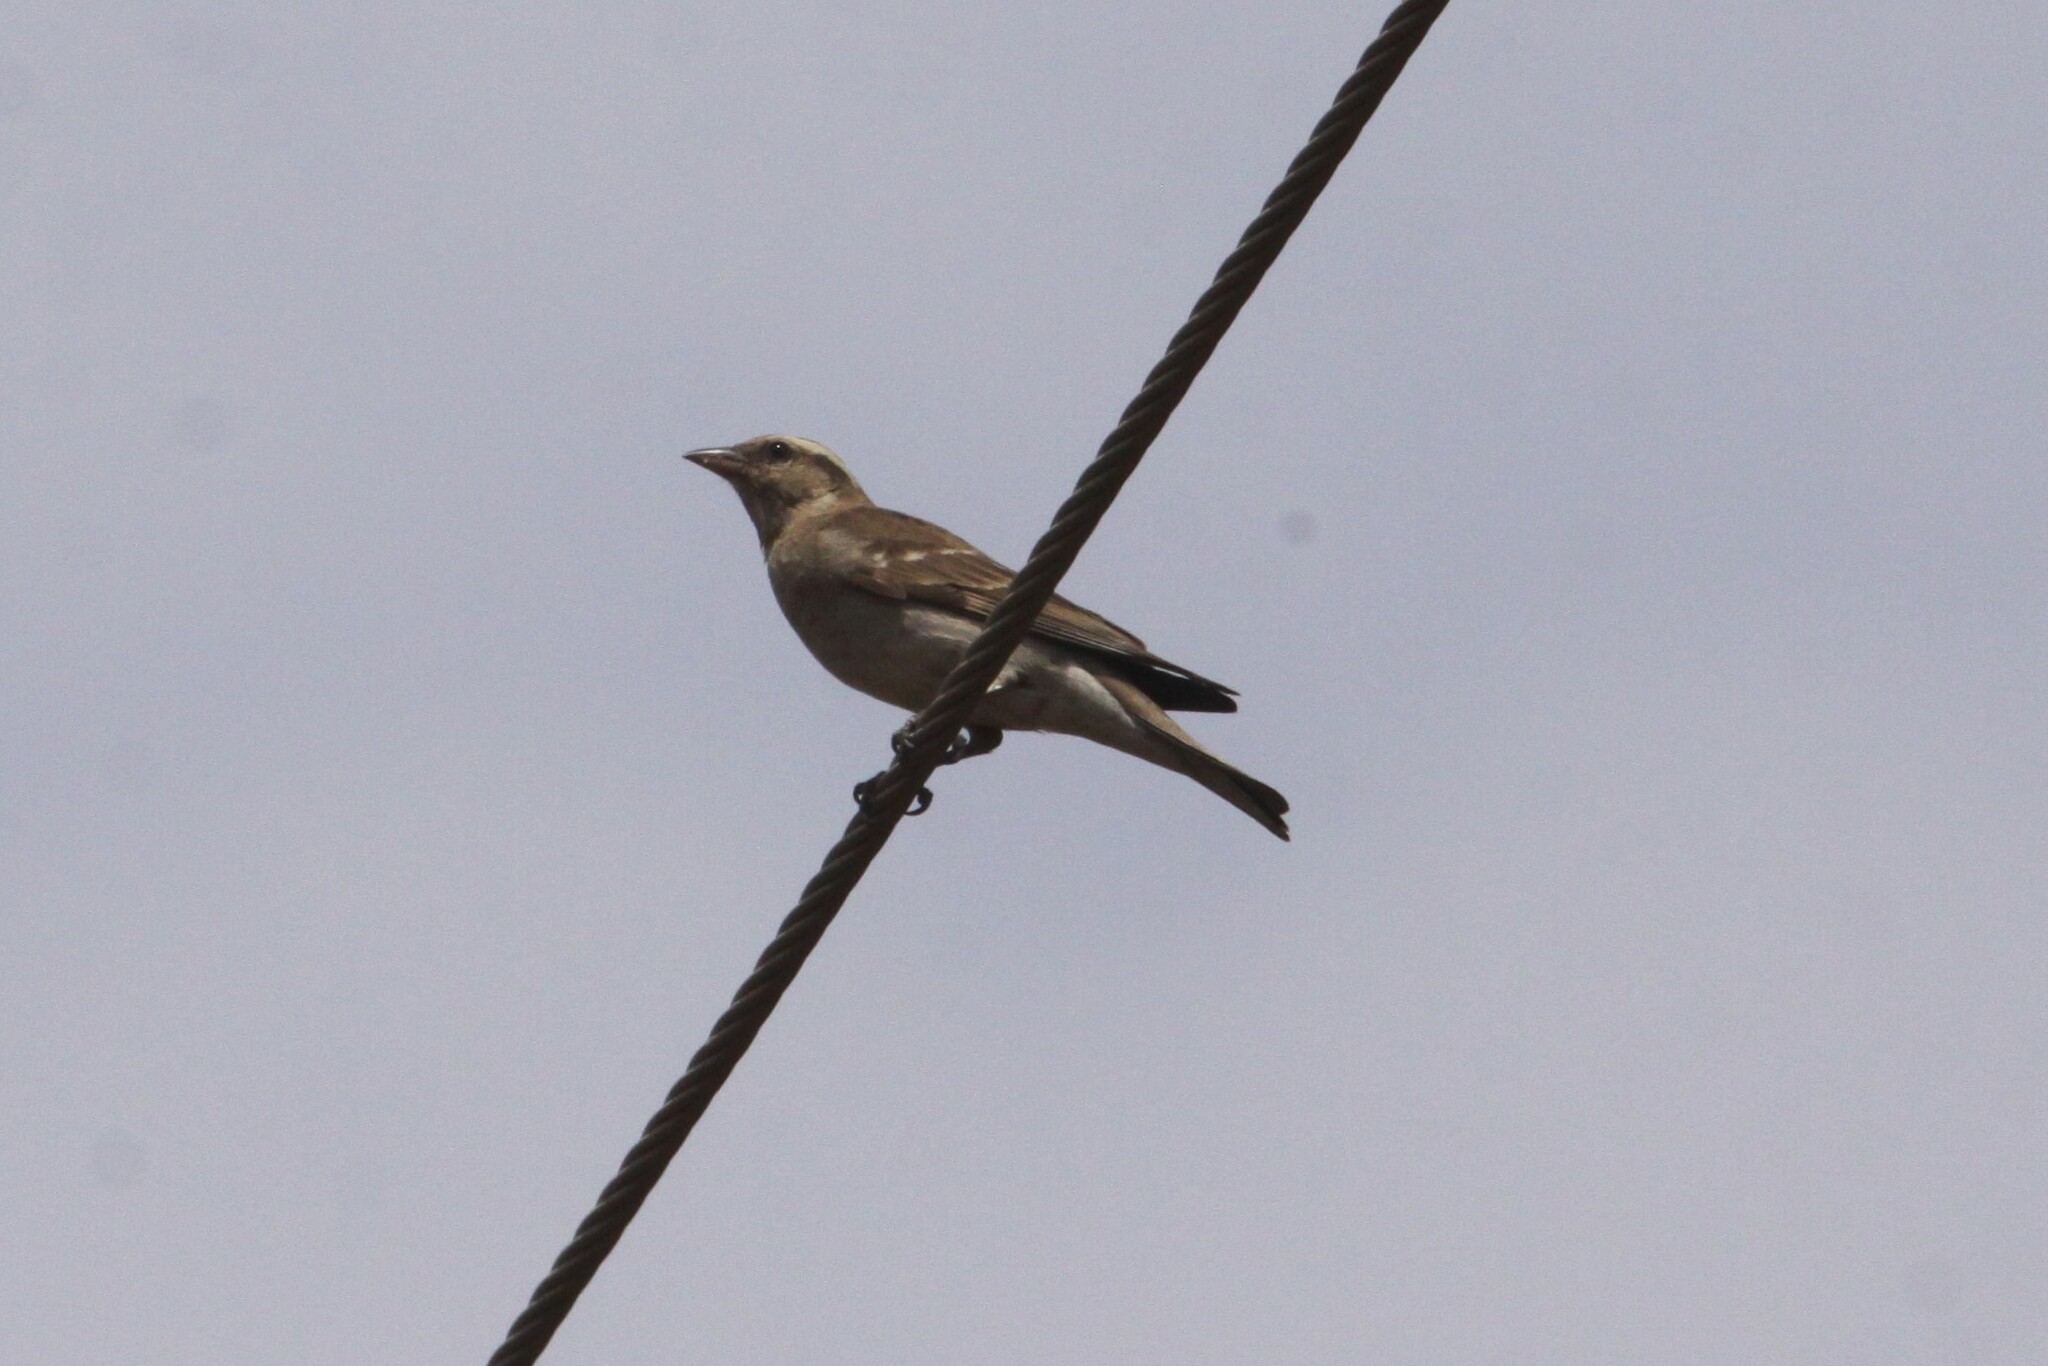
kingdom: Animalia
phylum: Chordata
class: Aves
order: Passeriformes
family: Passeridae
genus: Gymnoris
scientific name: Gymnoris superciliaris
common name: Yellow-throated petronia
